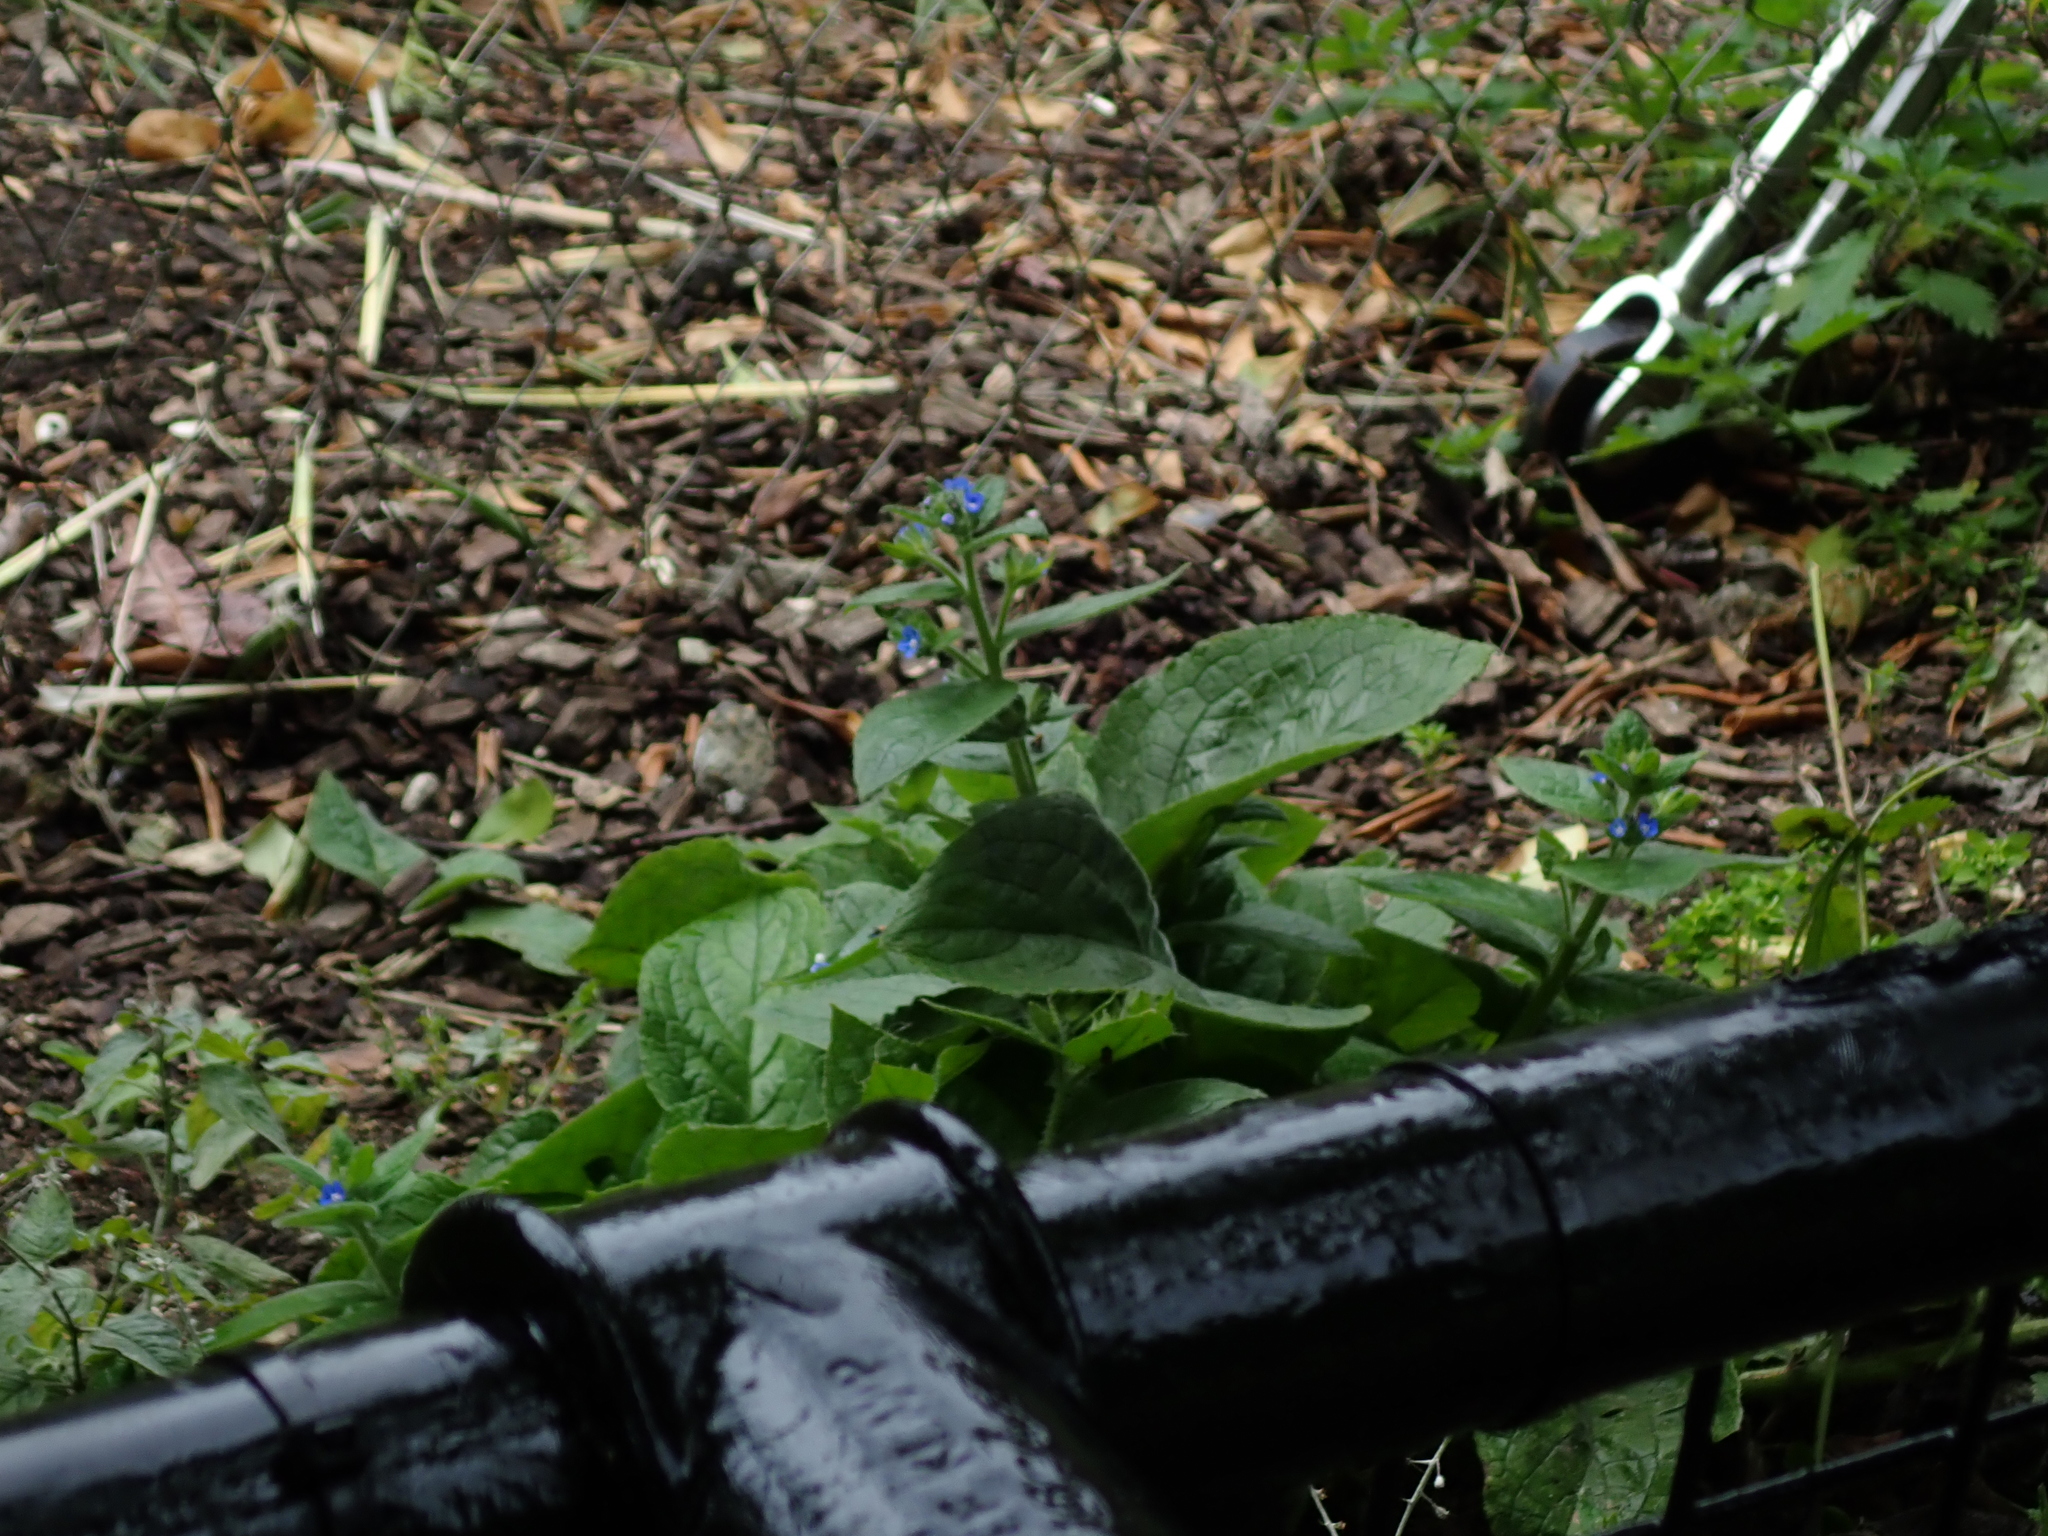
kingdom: Plantae
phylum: Tracheophyta
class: Magnoliopsida
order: Boraginales
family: Boraginaceae
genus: Pentaglottis
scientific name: Pentaglottis sempervirens
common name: Green alkanet
